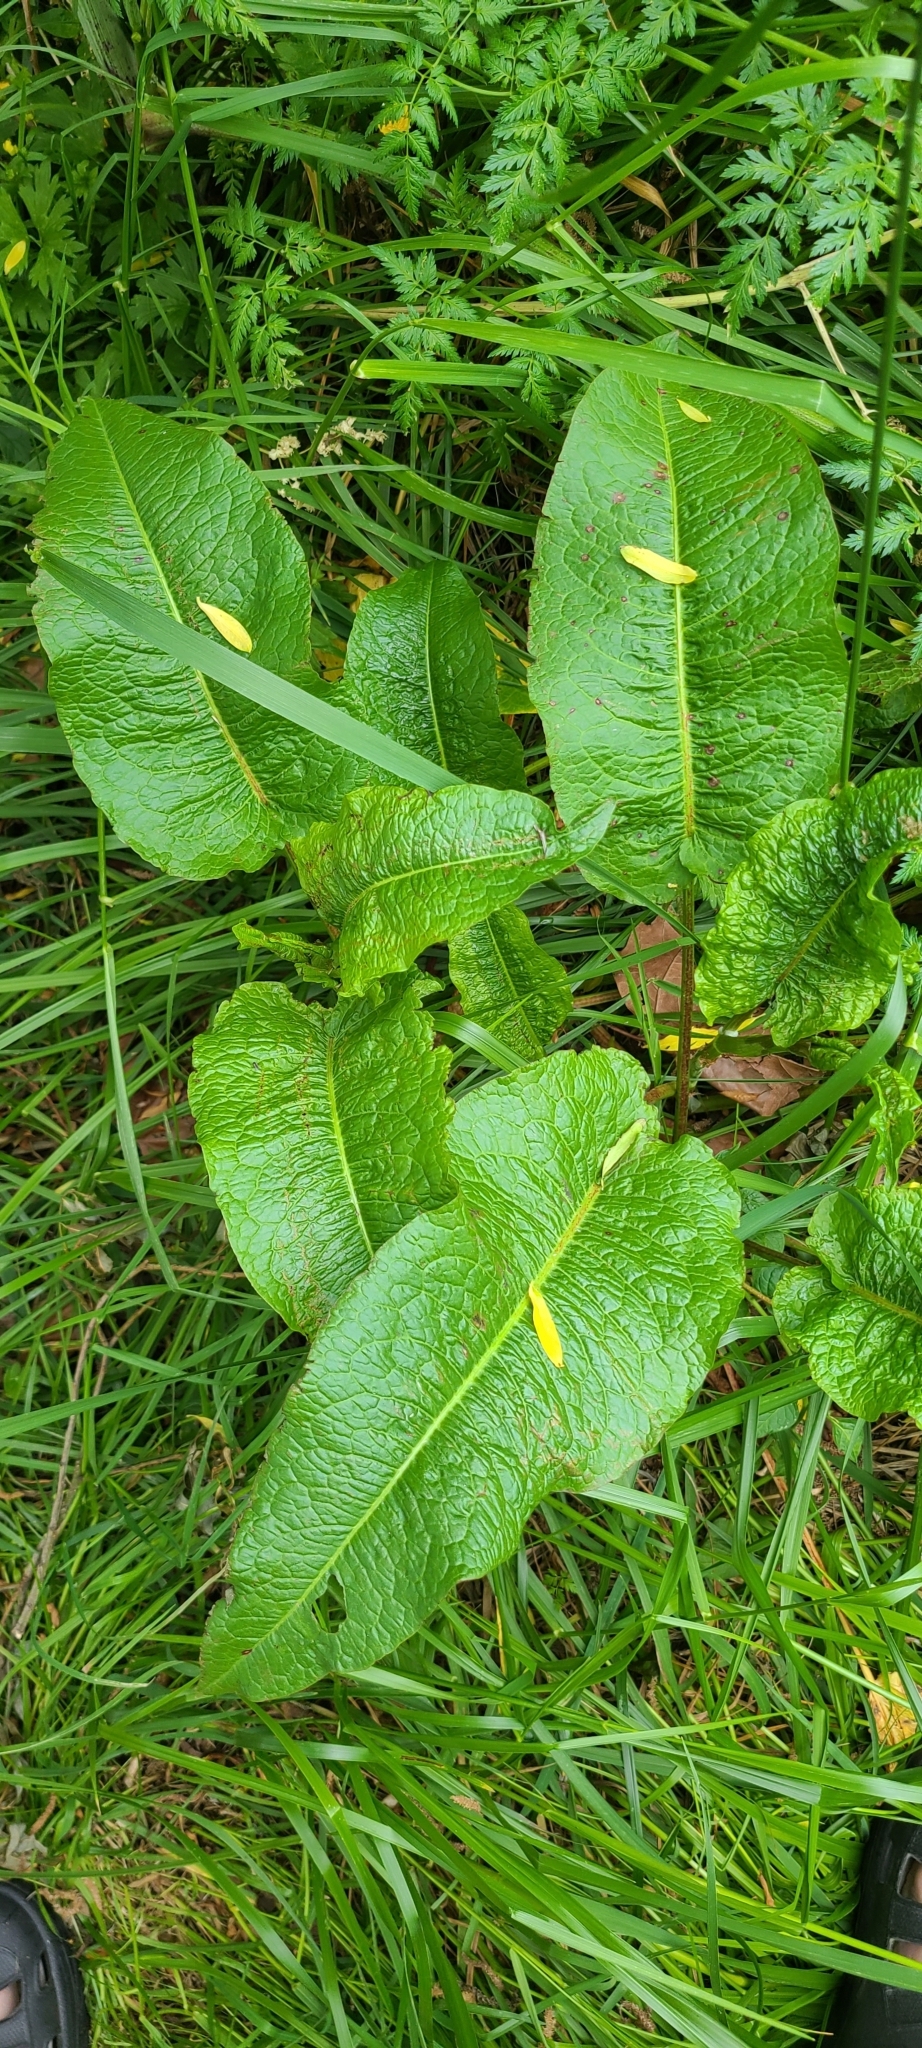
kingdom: Plantae
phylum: Tracheophyta
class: Magnoliopsida
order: Caryophyllales
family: Polygonaceae
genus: Rumex
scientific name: Rumex obtusifolius
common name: Bitter dock
